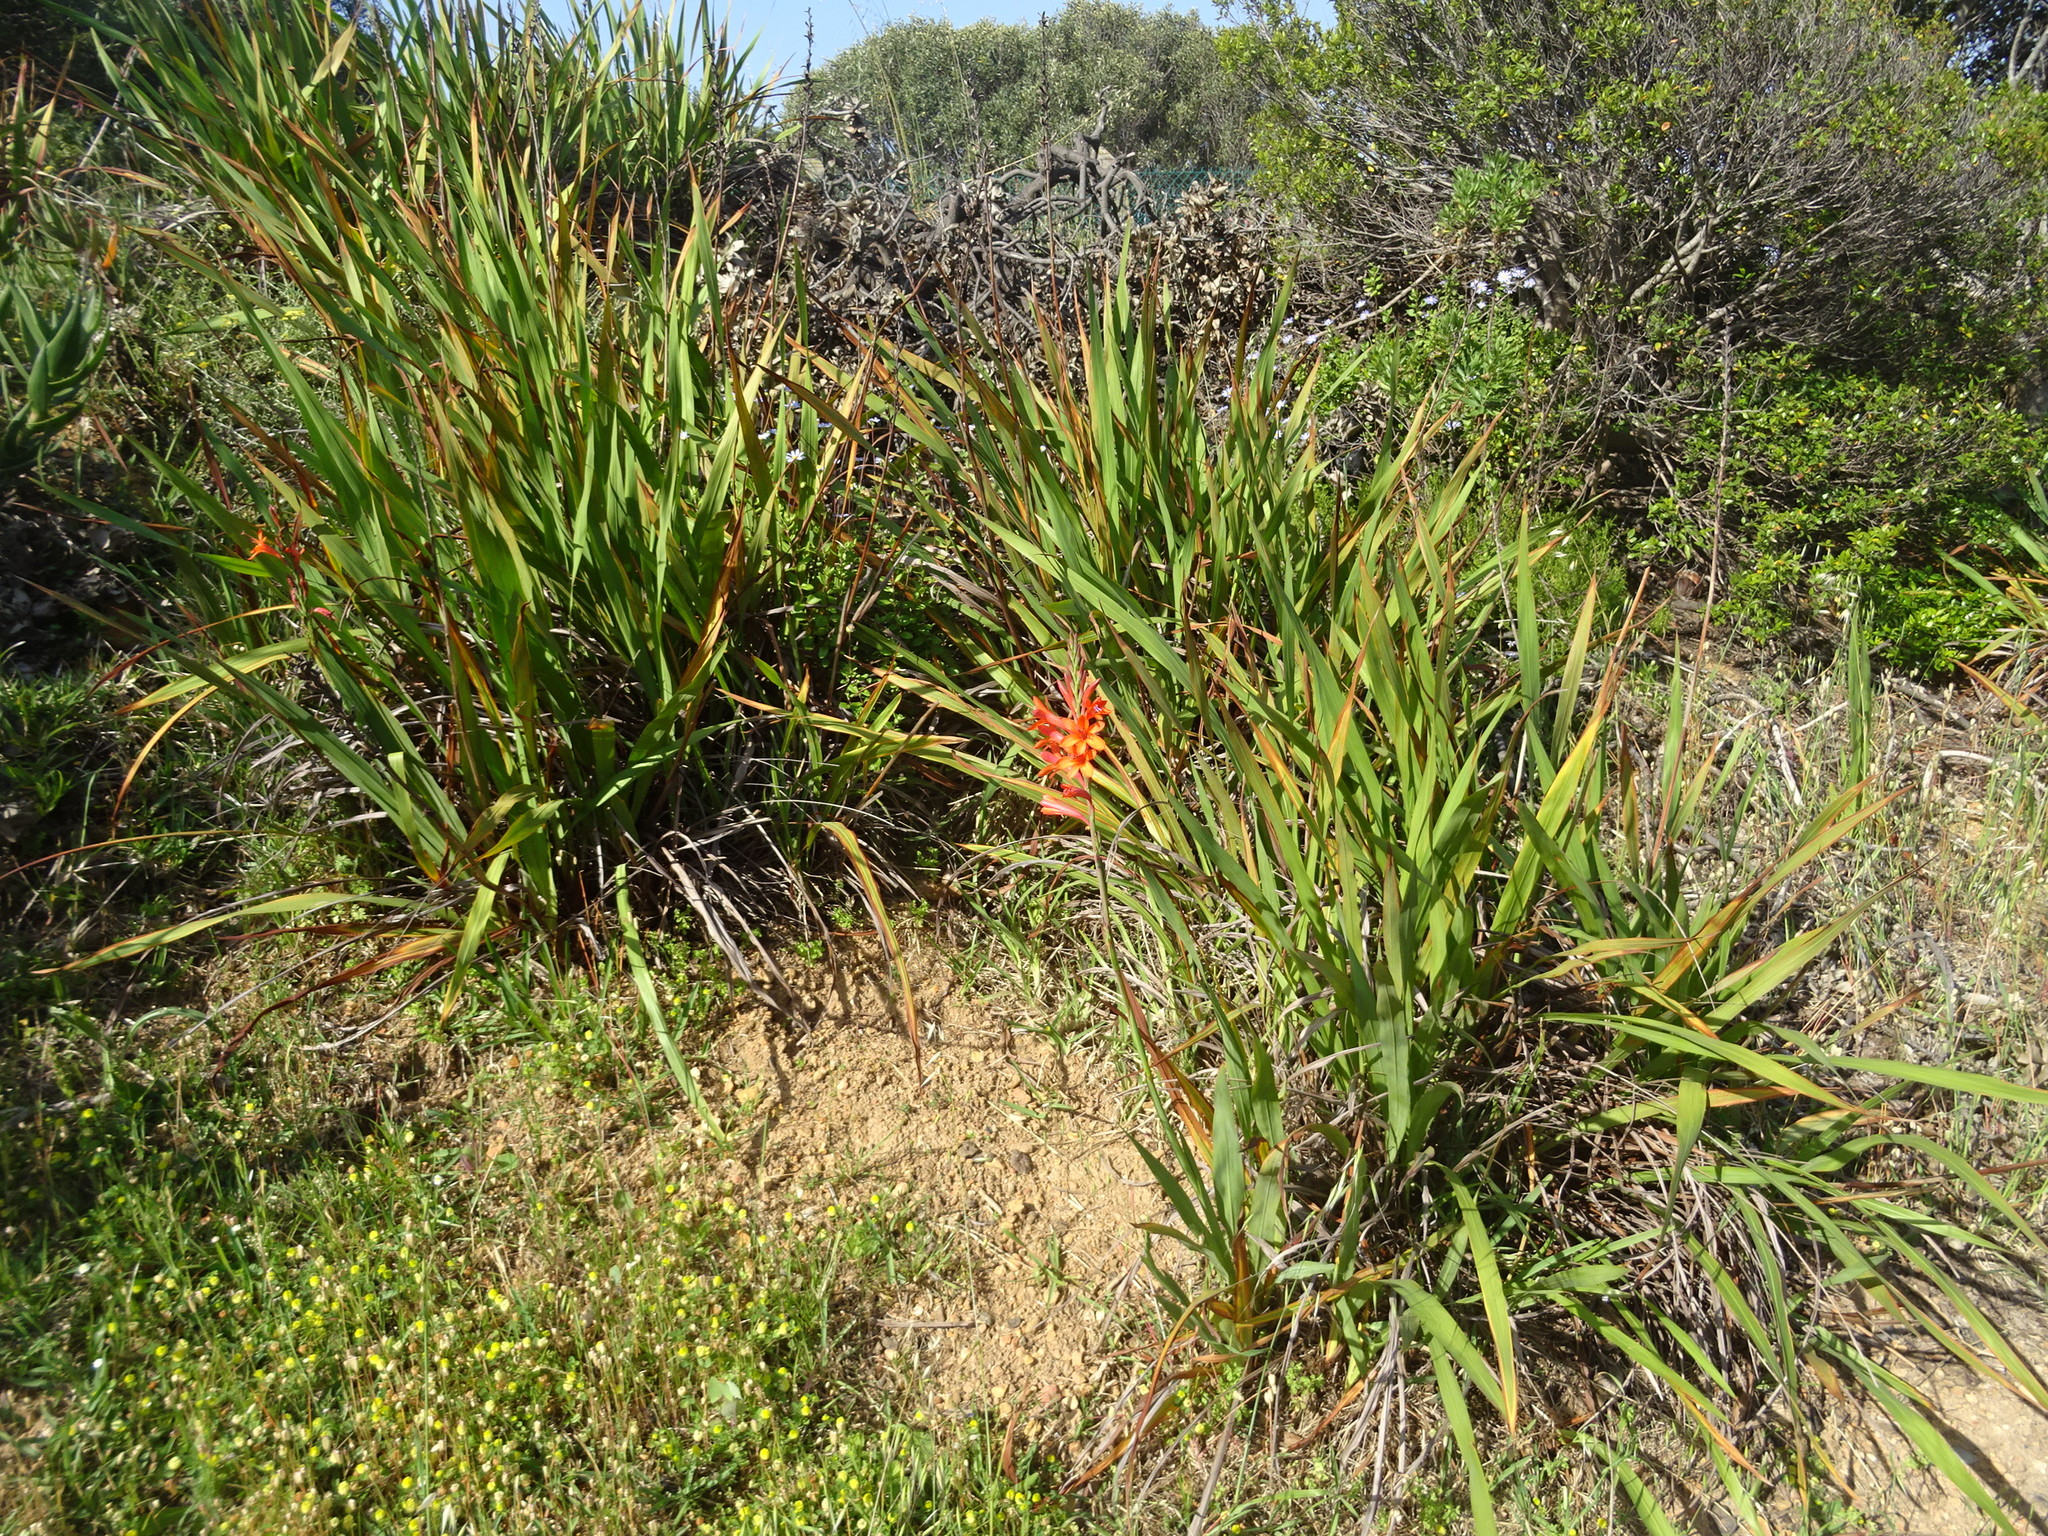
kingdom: Plantae
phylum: Tracheophyta
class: Liliopsida
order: Asparagales
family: Iridaceae
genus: Watsonia
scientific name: Watsonia meriana
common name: Bulbil bugle-lily
